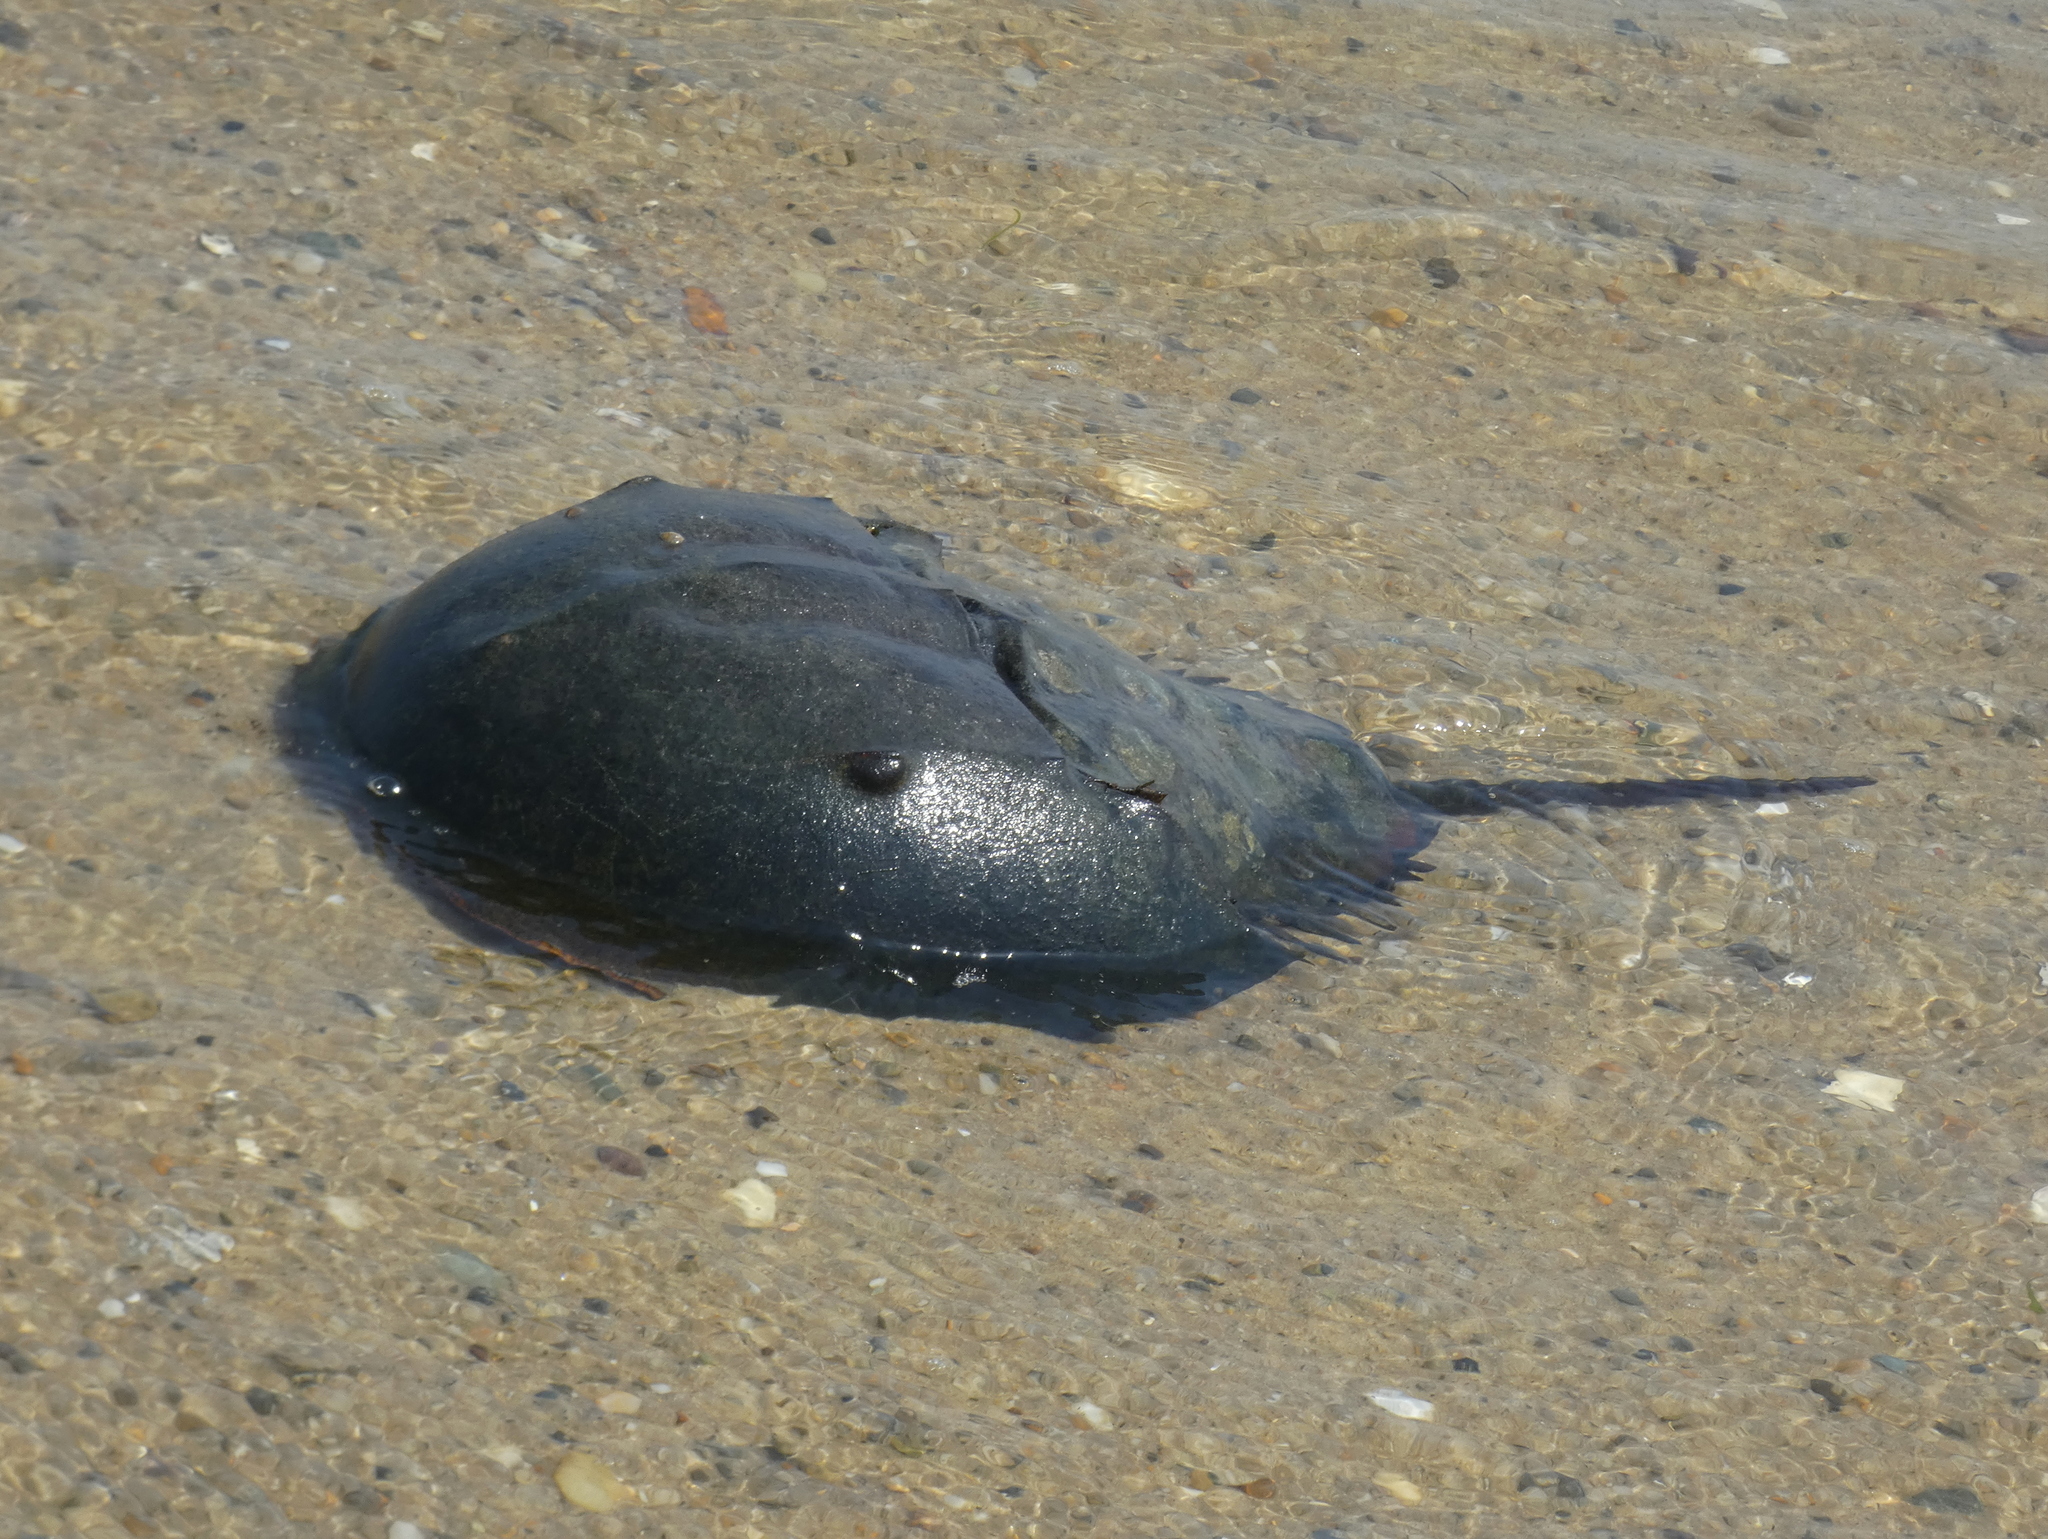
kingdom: Animalia
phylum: Arthropoda
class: Merostomata
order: Xiphosurida
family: Limulidae
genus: Limulus
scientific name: Limulus polyphemus
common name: Horseshoe crab
